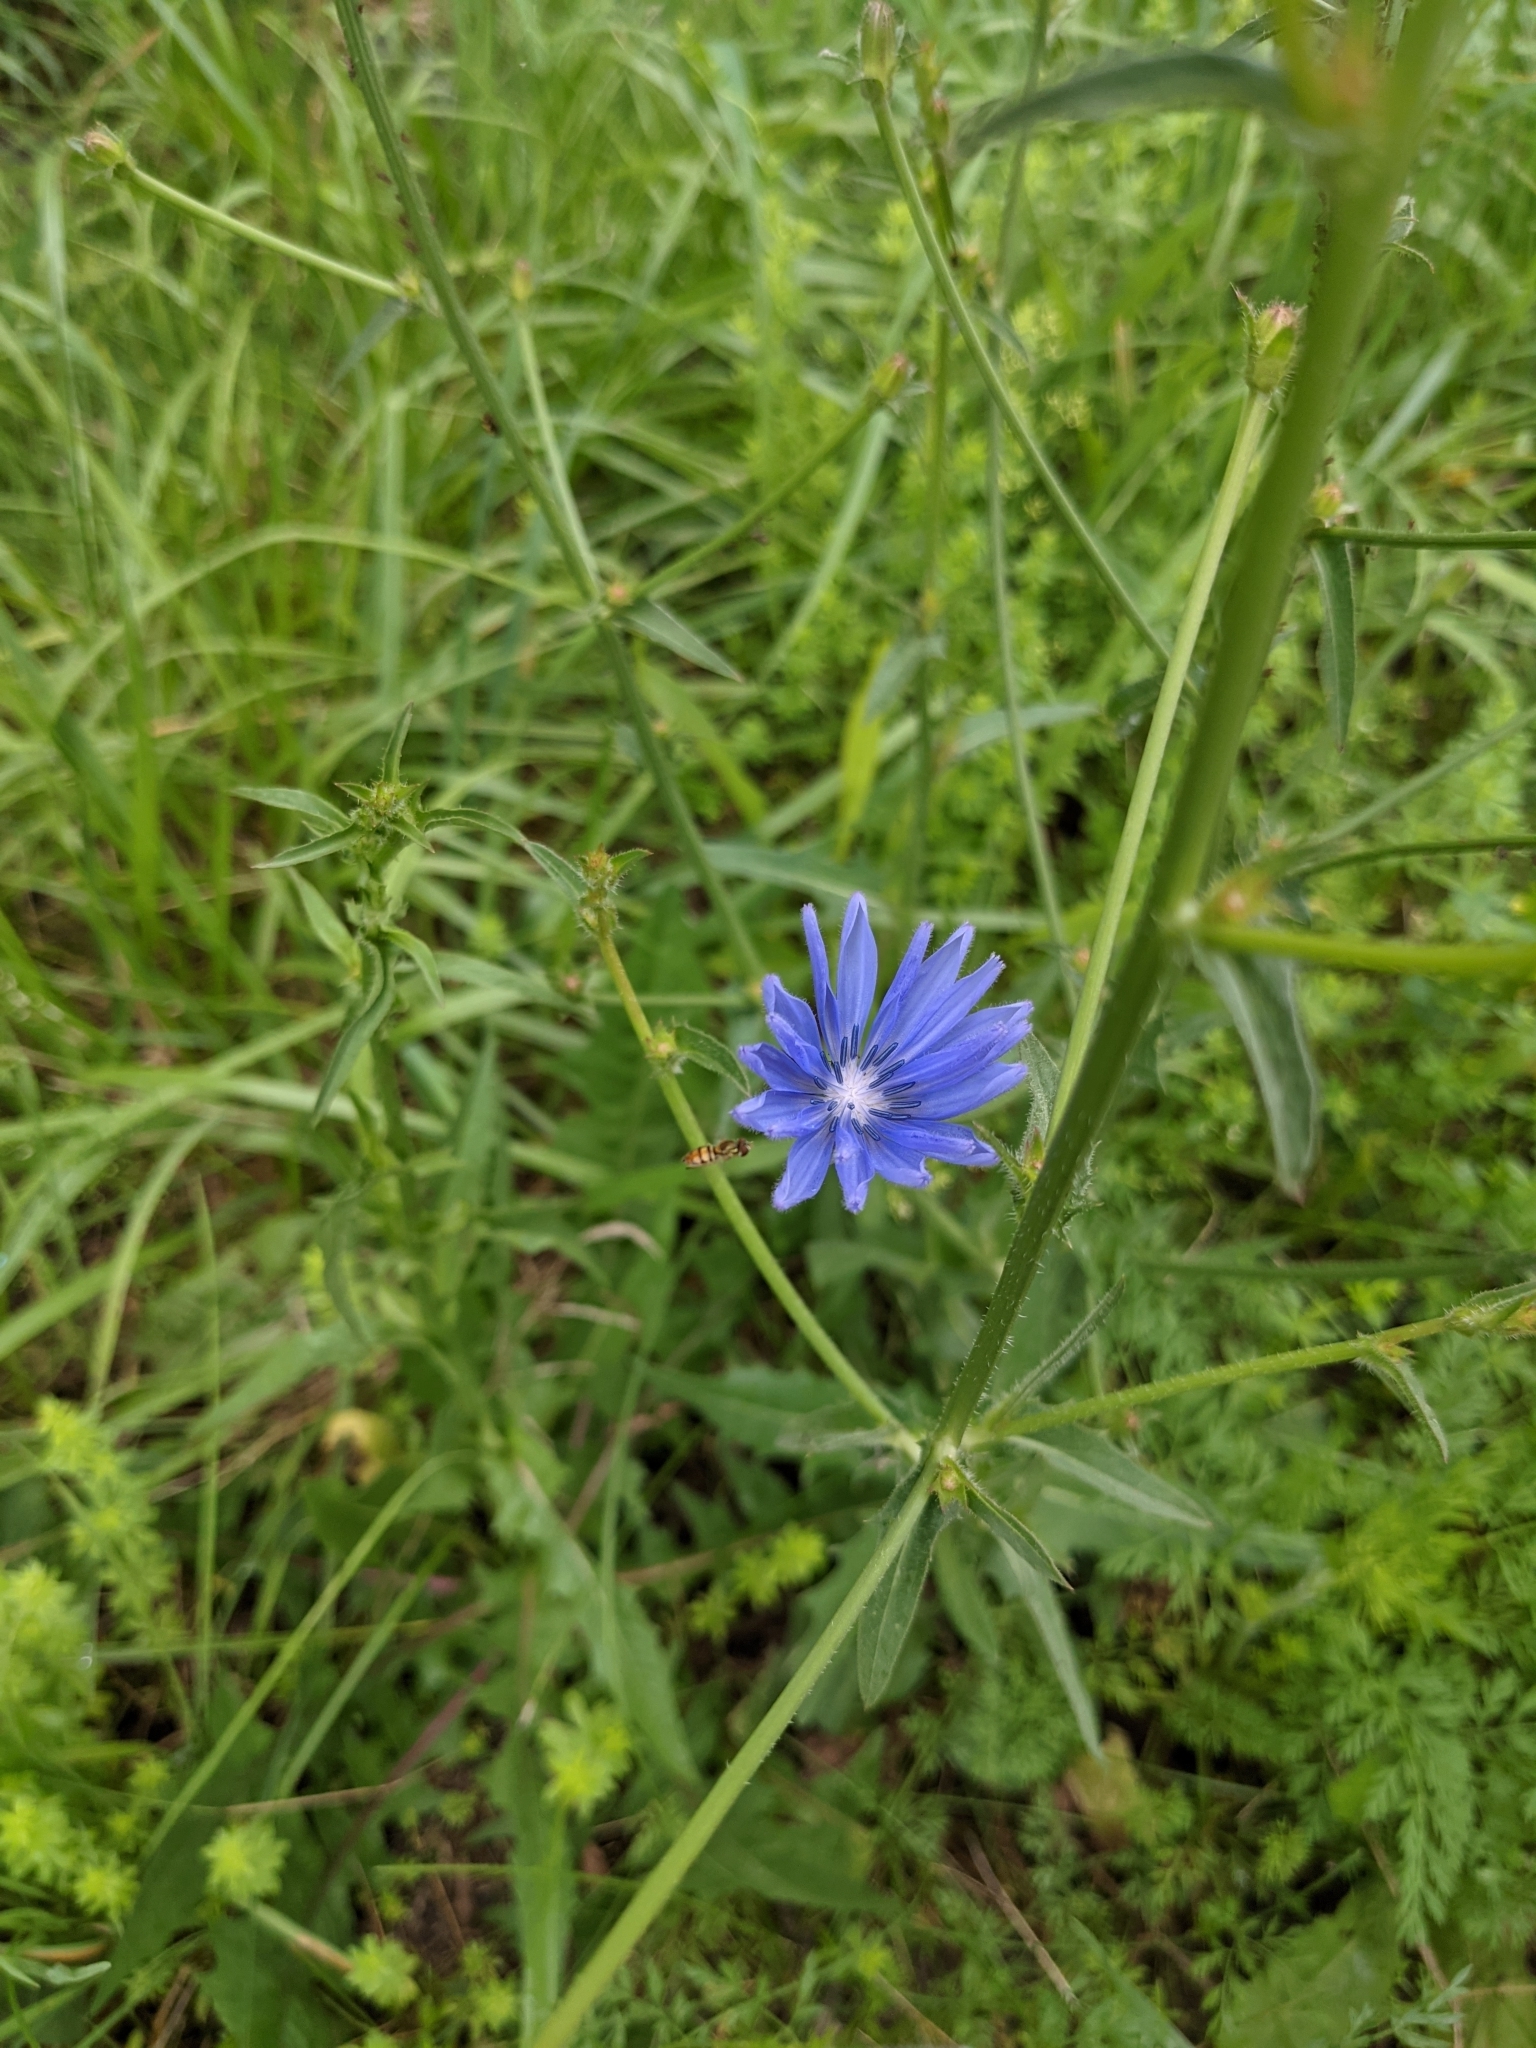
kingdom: Plantae
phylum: Tracheophyta
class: Magnoliopsida
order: Asterales
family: Asteraceae
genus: Cichorium
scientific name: Cichorium intybus
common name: Chicory
